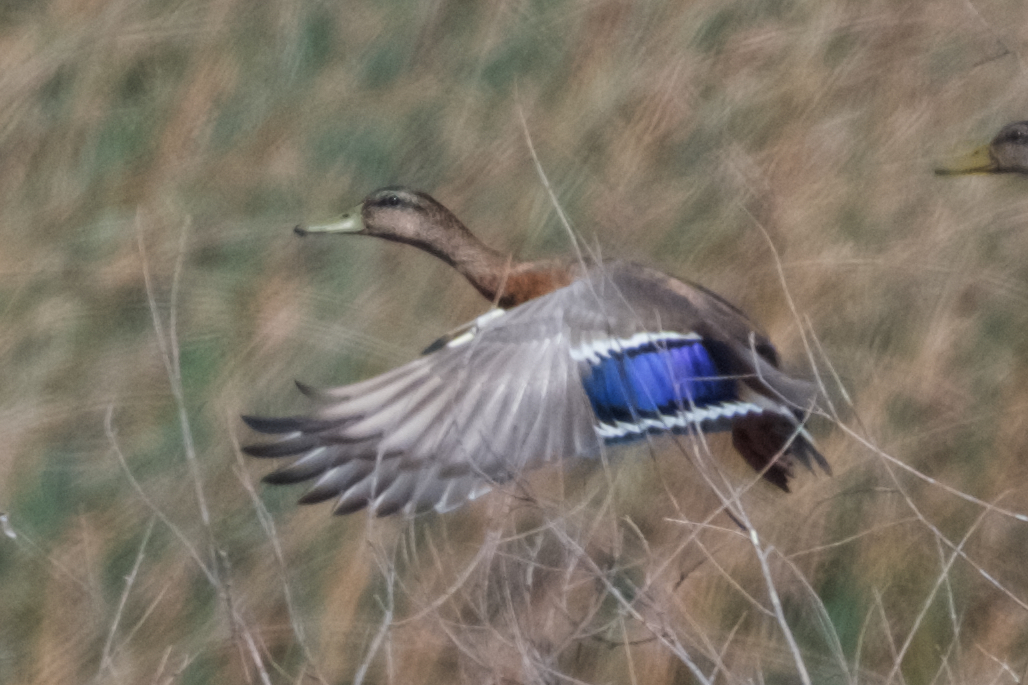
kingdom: Animalia
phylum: Chordata
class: Aves
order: Anseriformes
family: Anatidae
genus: Anas
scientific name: Anas platyrhynchos
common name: Mallard
